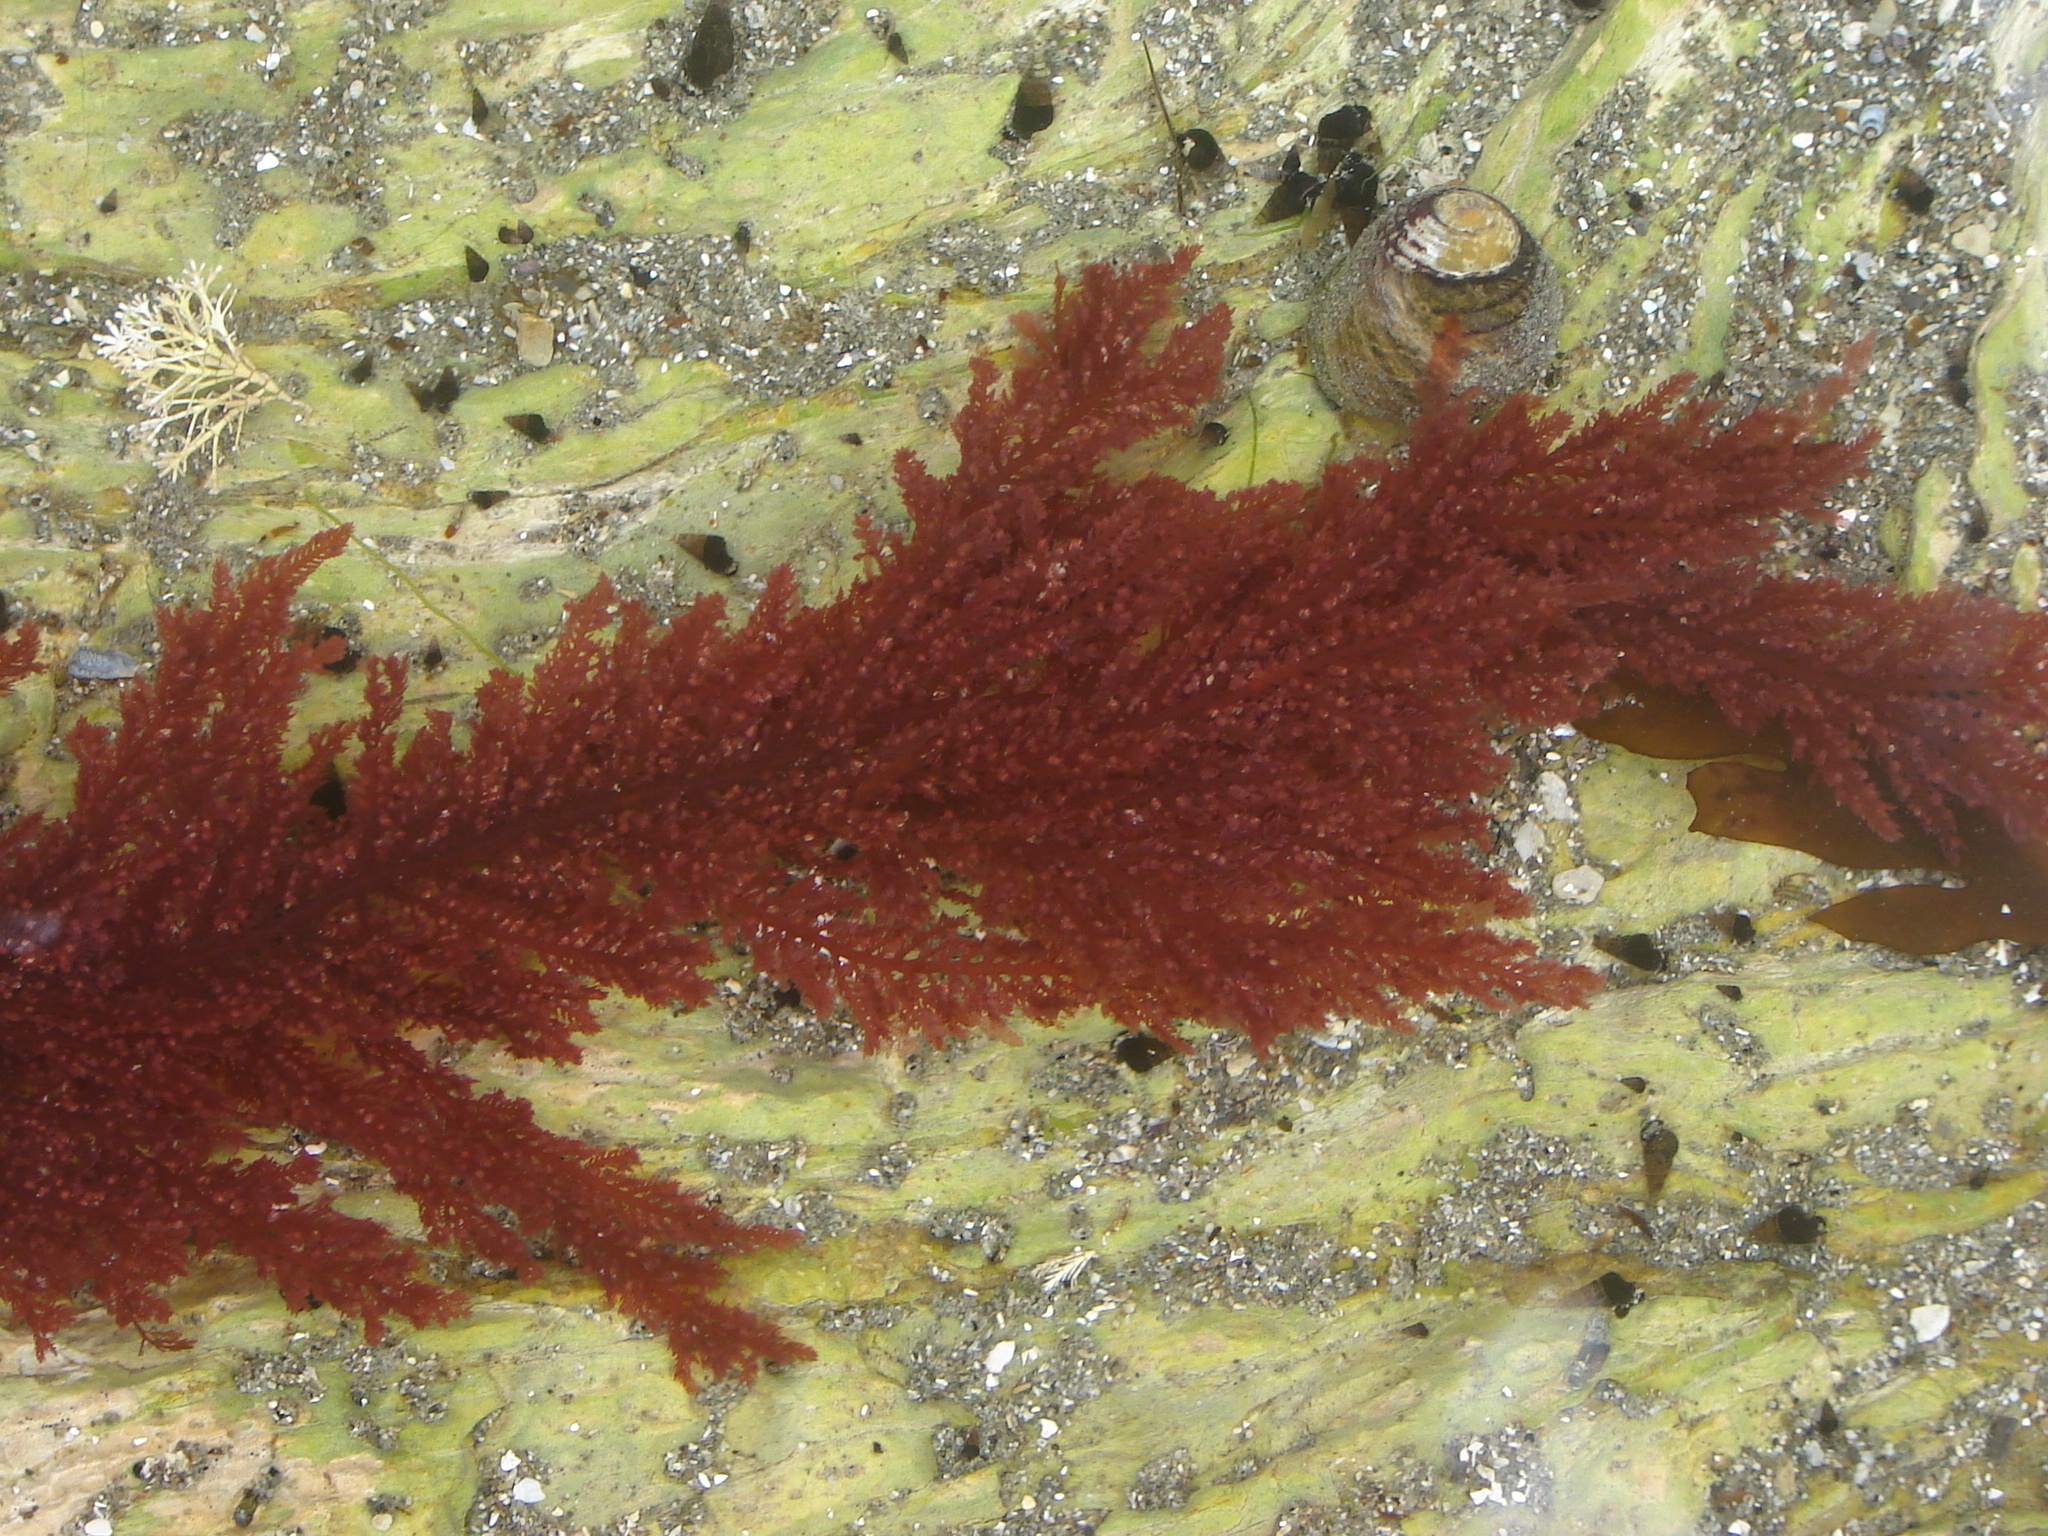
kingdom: Plantae
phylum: Rhodophyta
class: Florideophyceae
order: Ceramiales
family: Callithamniaceae
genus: Euptilota
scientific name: Euptilota formosissima
